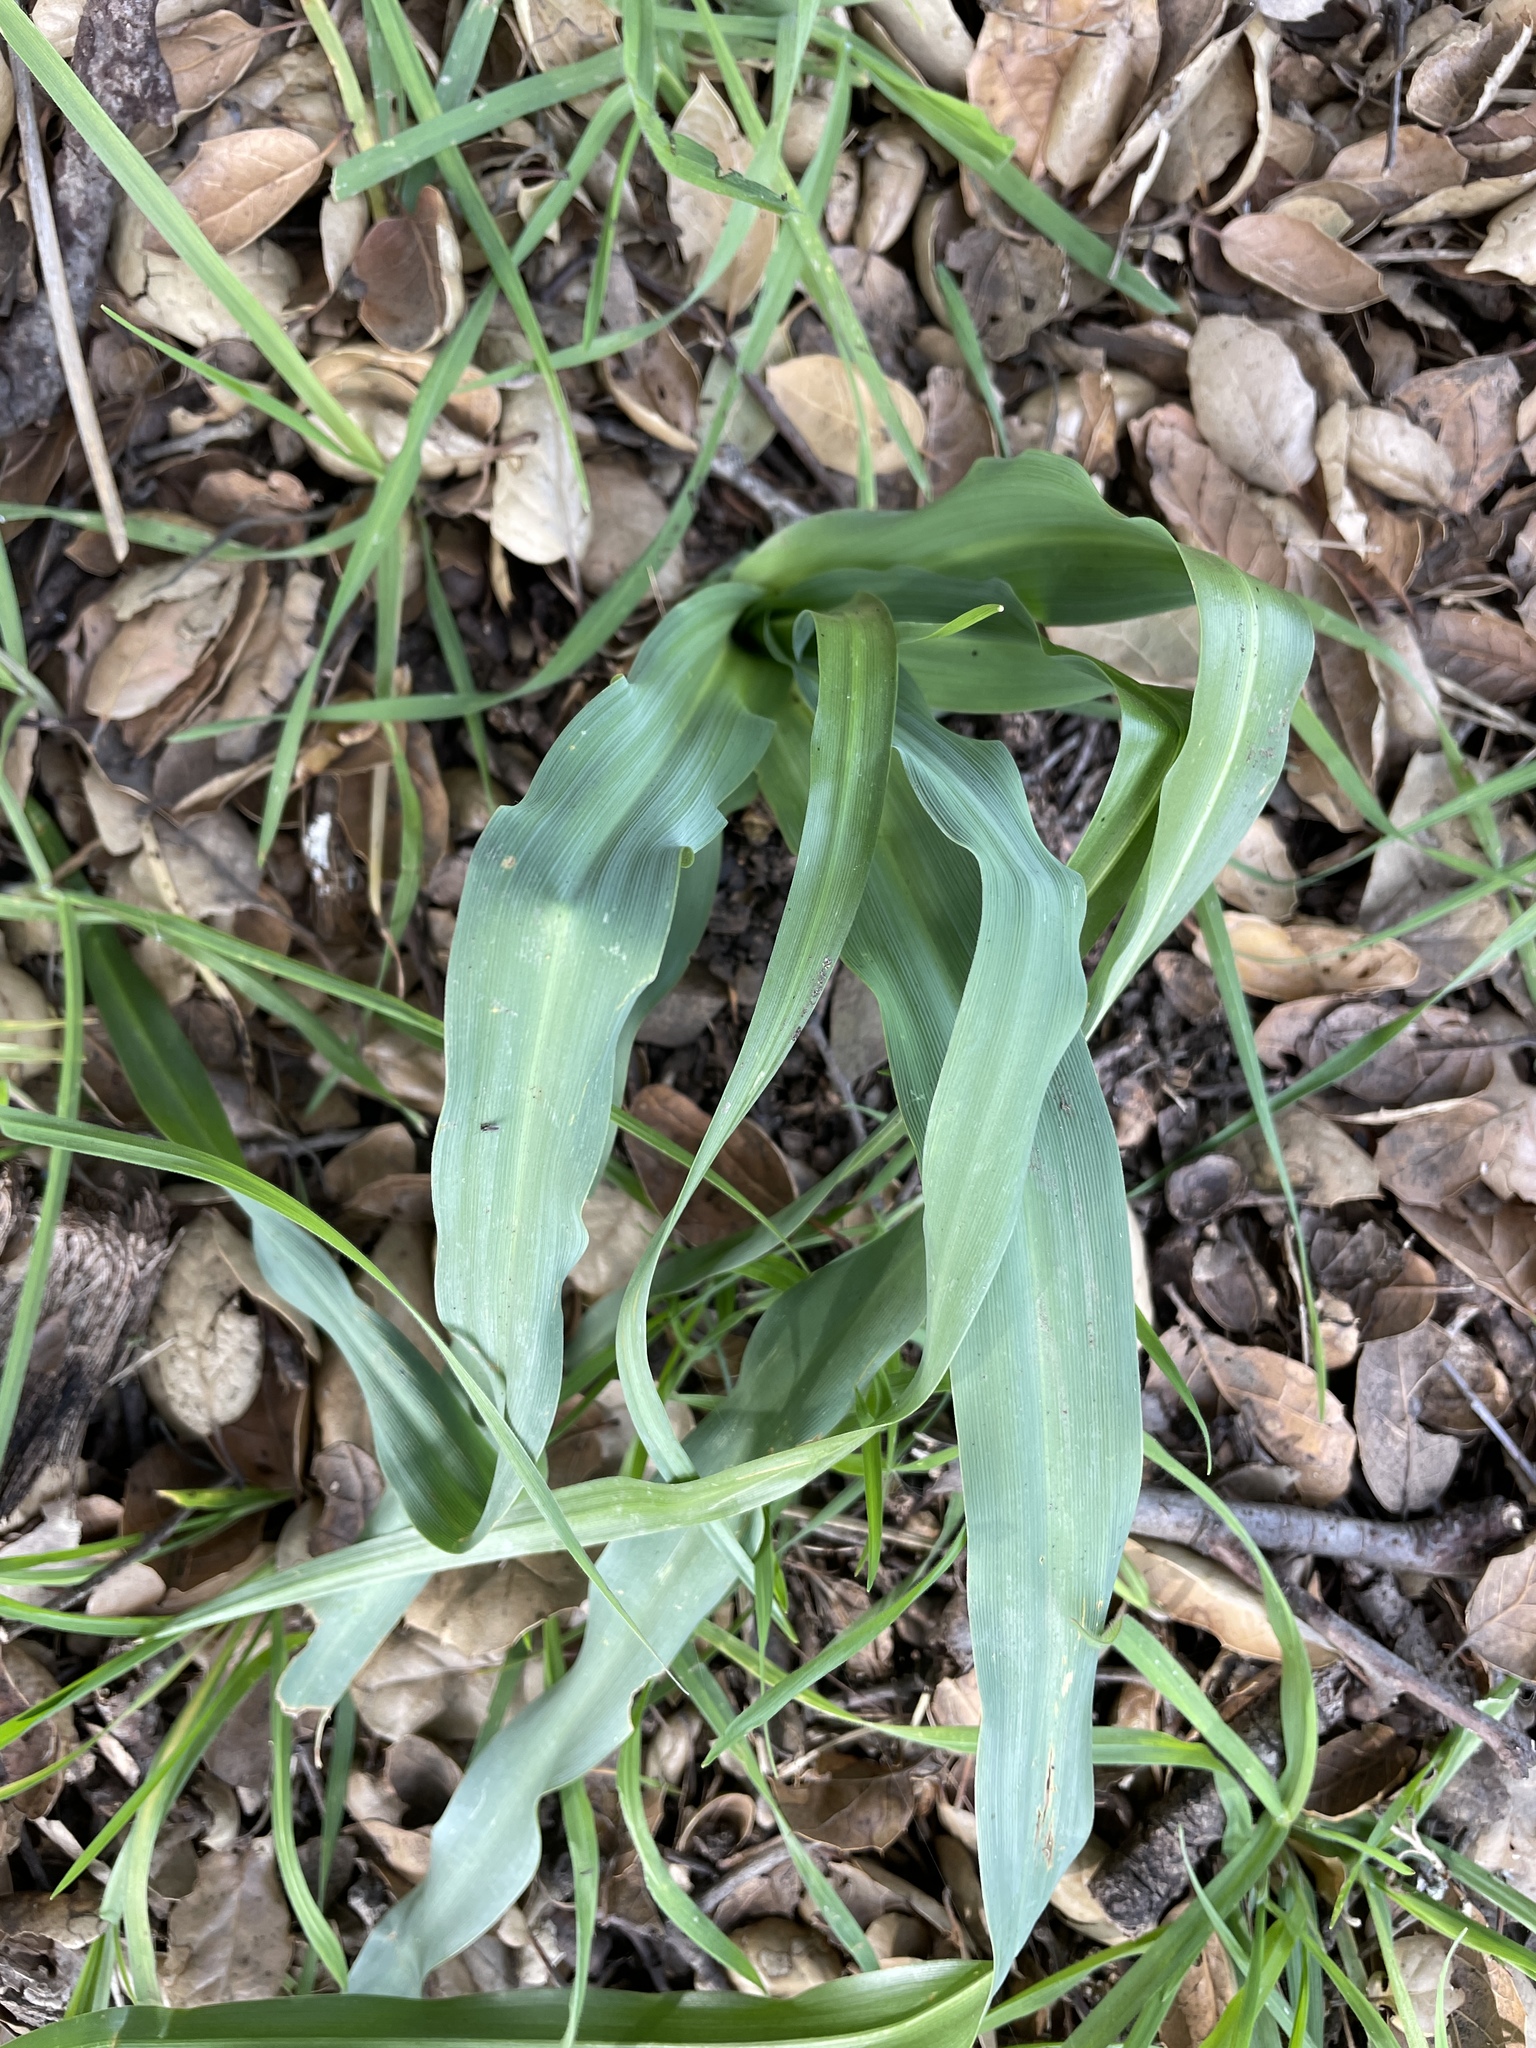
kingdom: Plantae
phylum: Tracheophyta
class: Liliopsida
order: Asparagales
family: Asparagaceae
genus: Chlorogalum
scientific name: Chlorogalum pomeridianum
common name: Amole
